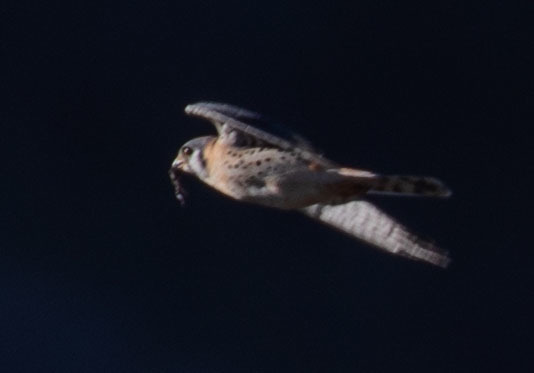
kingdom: Animalia
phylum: Chordata
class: Aves
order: Falconiformes
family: Falconidae
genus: Falco
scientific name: Falco sparverius
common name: American kestrel
